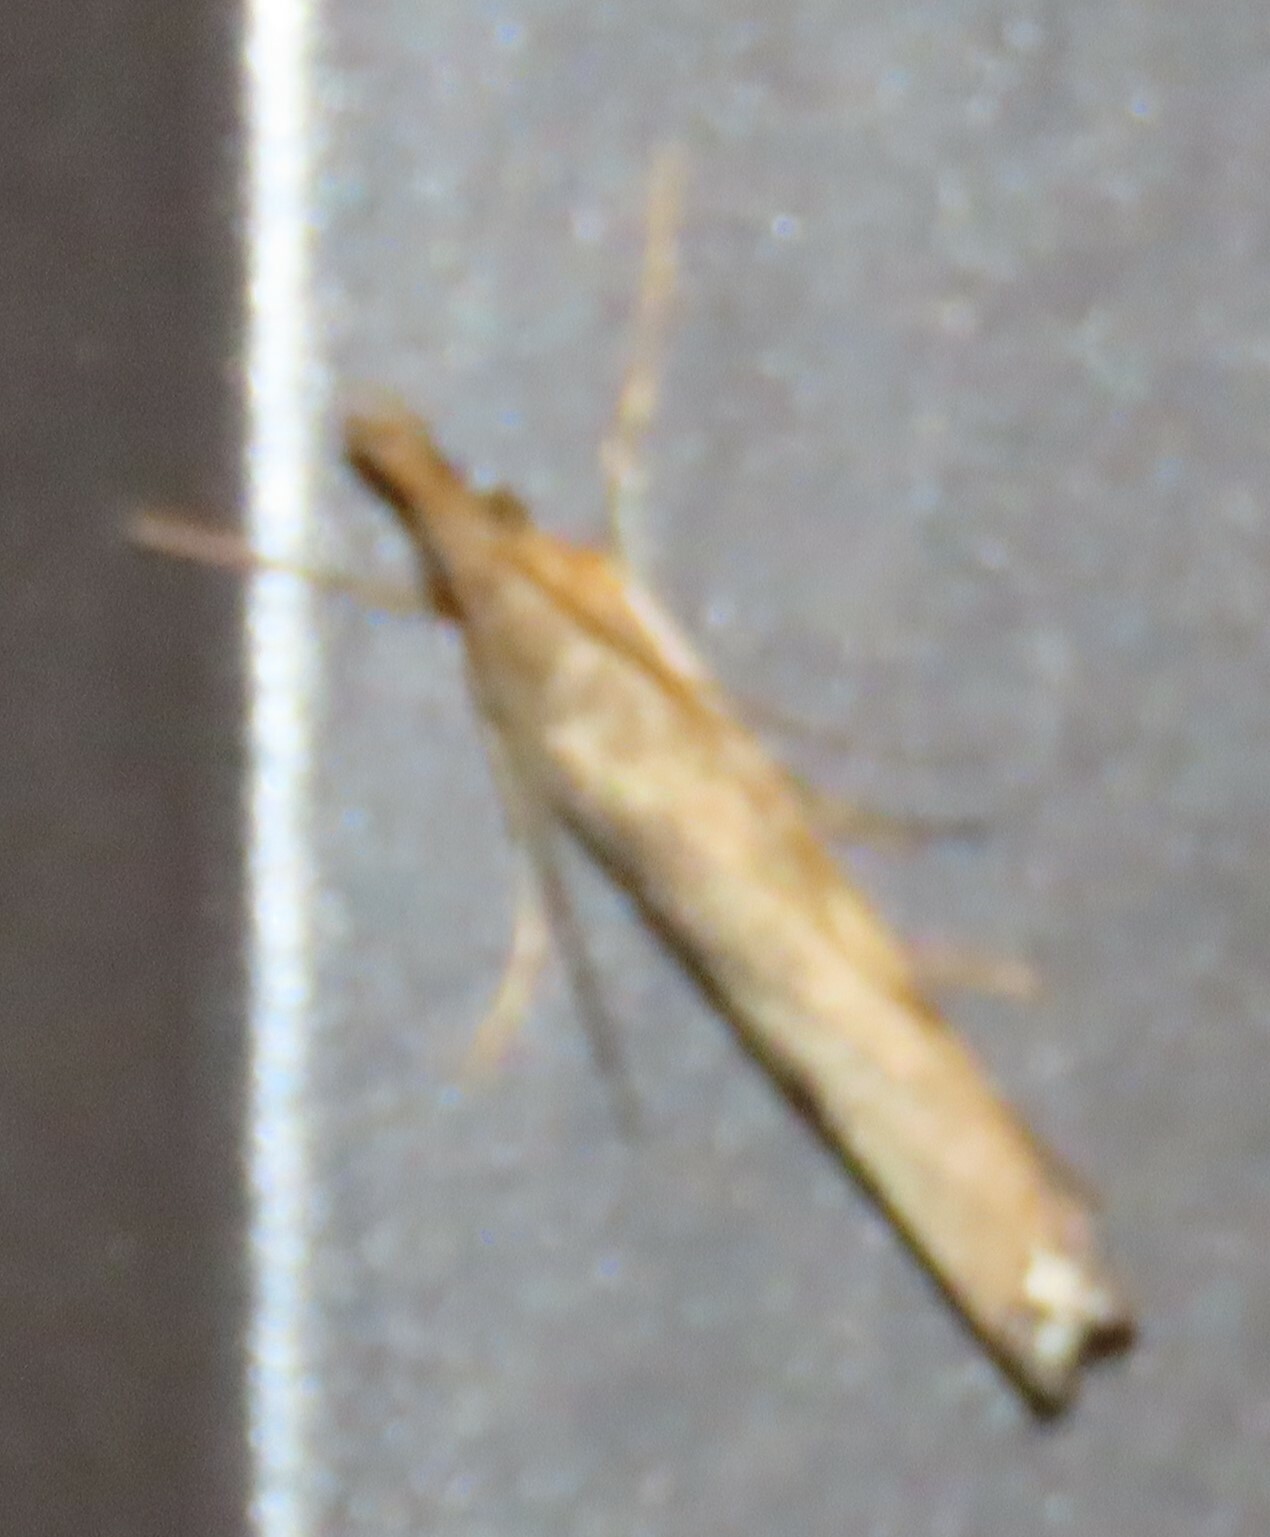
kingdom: Animalia
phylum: Arthropoda
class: Insecta
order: Lepidoptera
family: Crambidae
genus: Orocrambus
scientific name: Orocrambus flexuosellus
